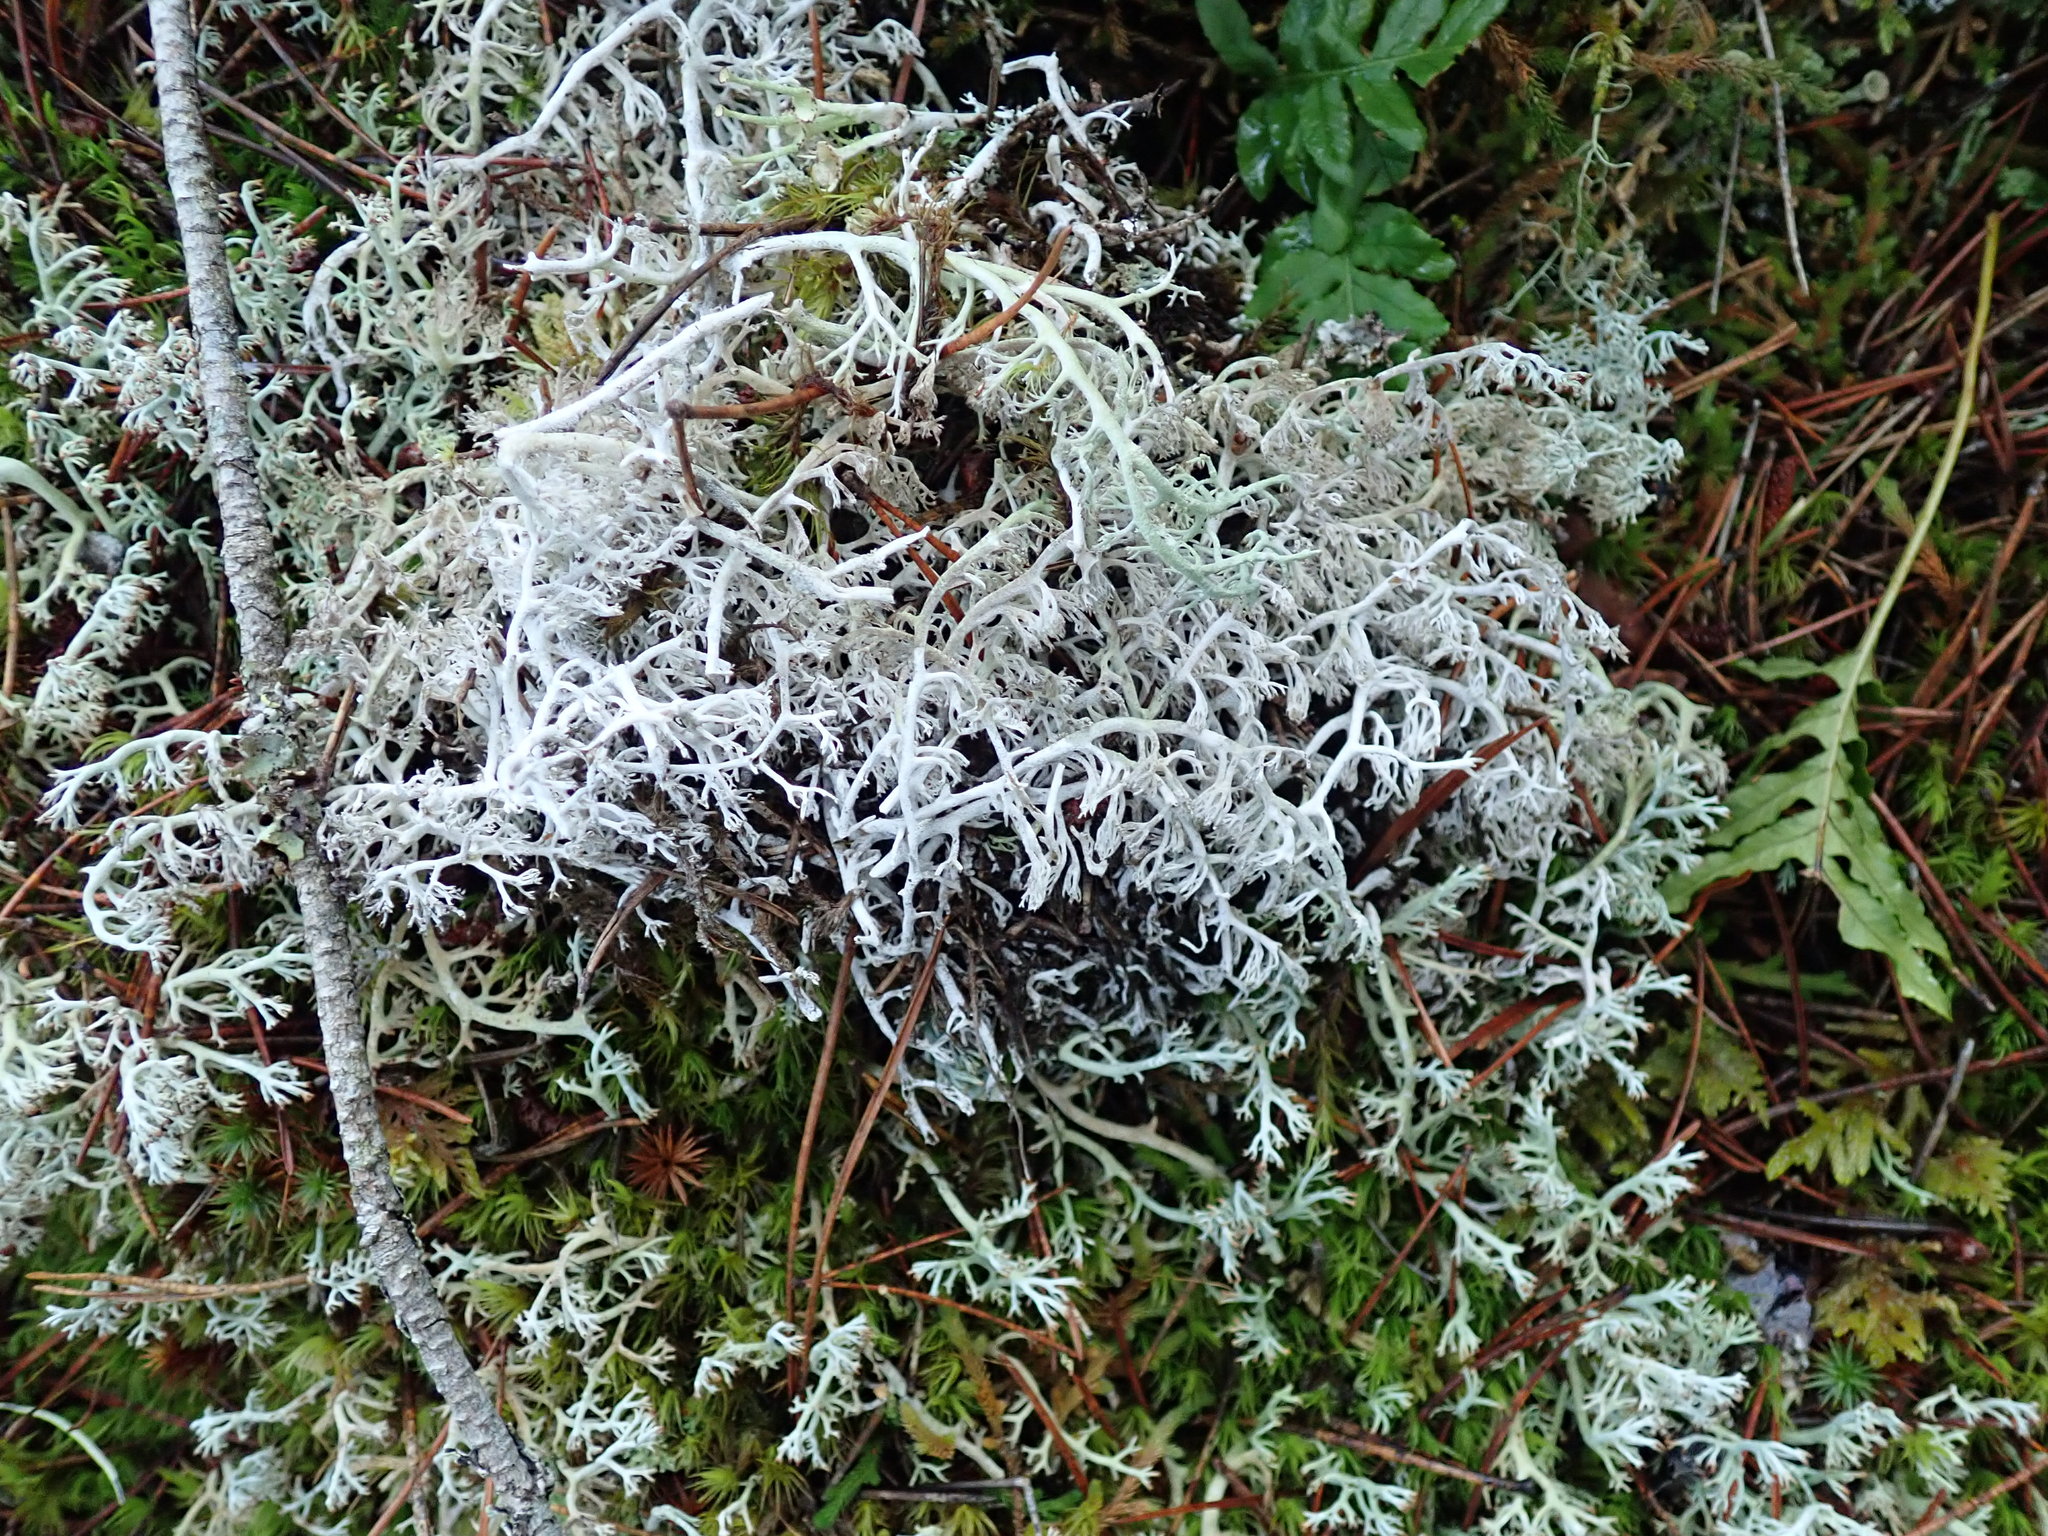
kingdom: Fungi
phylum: Ascomycota
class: Lecanoromycetes
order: Lecanorales
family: Cladoniaceae
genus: Cladonia
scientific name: Cladonia rangiferina
